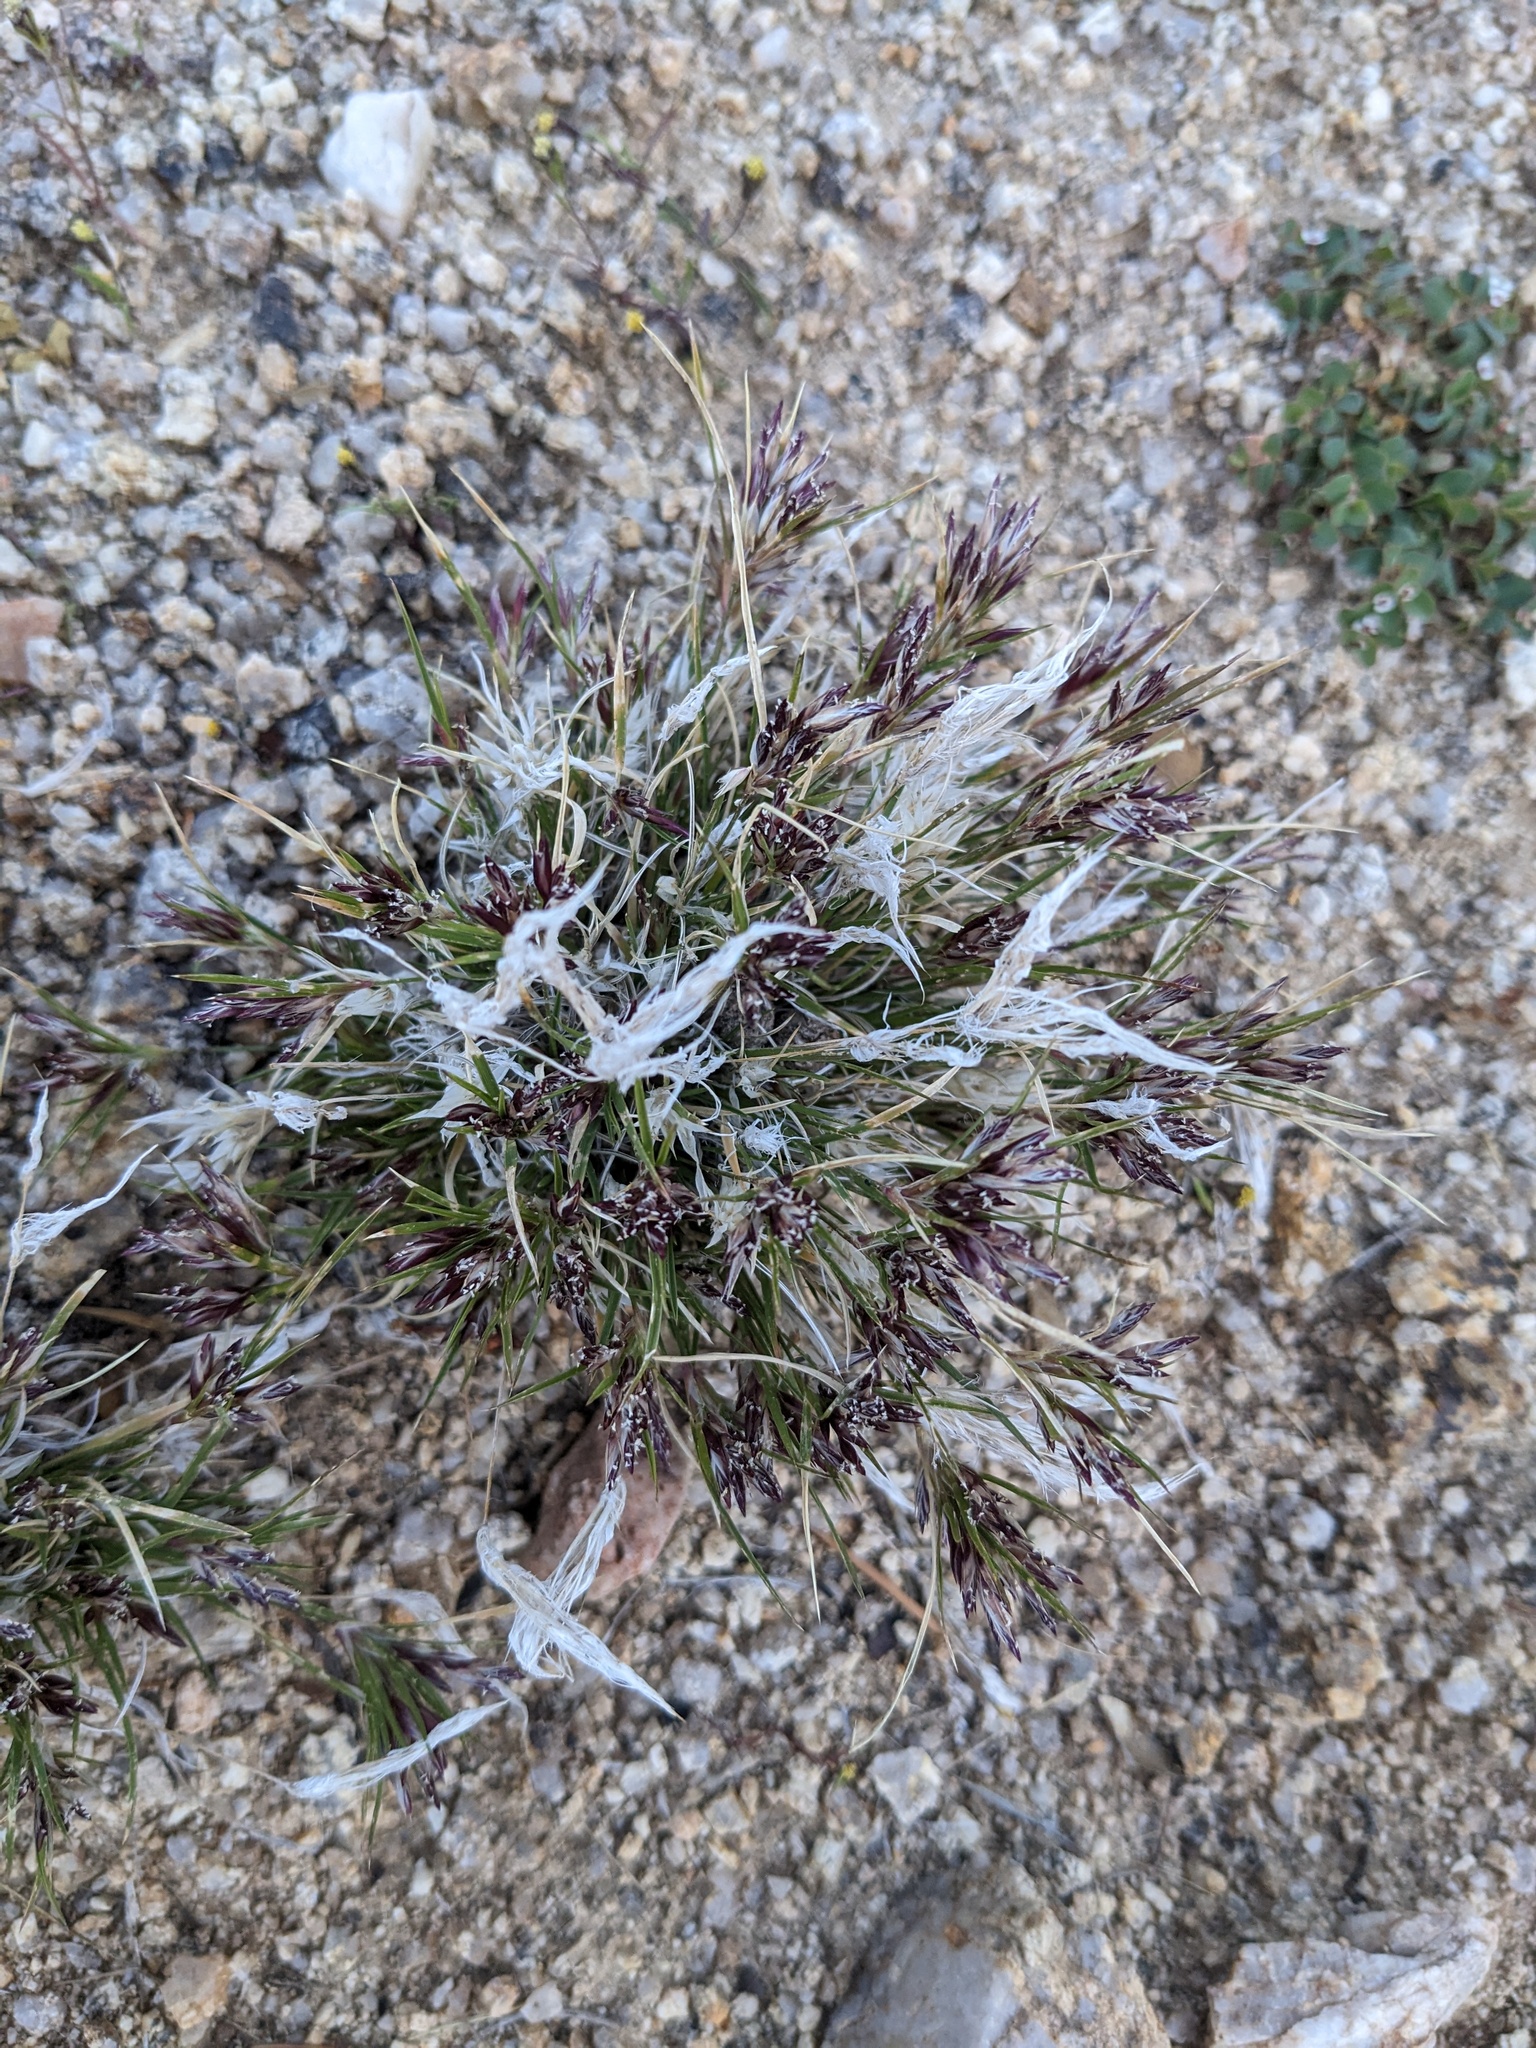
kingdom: Plantae
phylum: Tracheophyta
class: Liliopsida
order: Poales
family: Poaceae
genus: Dasyochloa
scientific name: Dasyochloa pulchella
